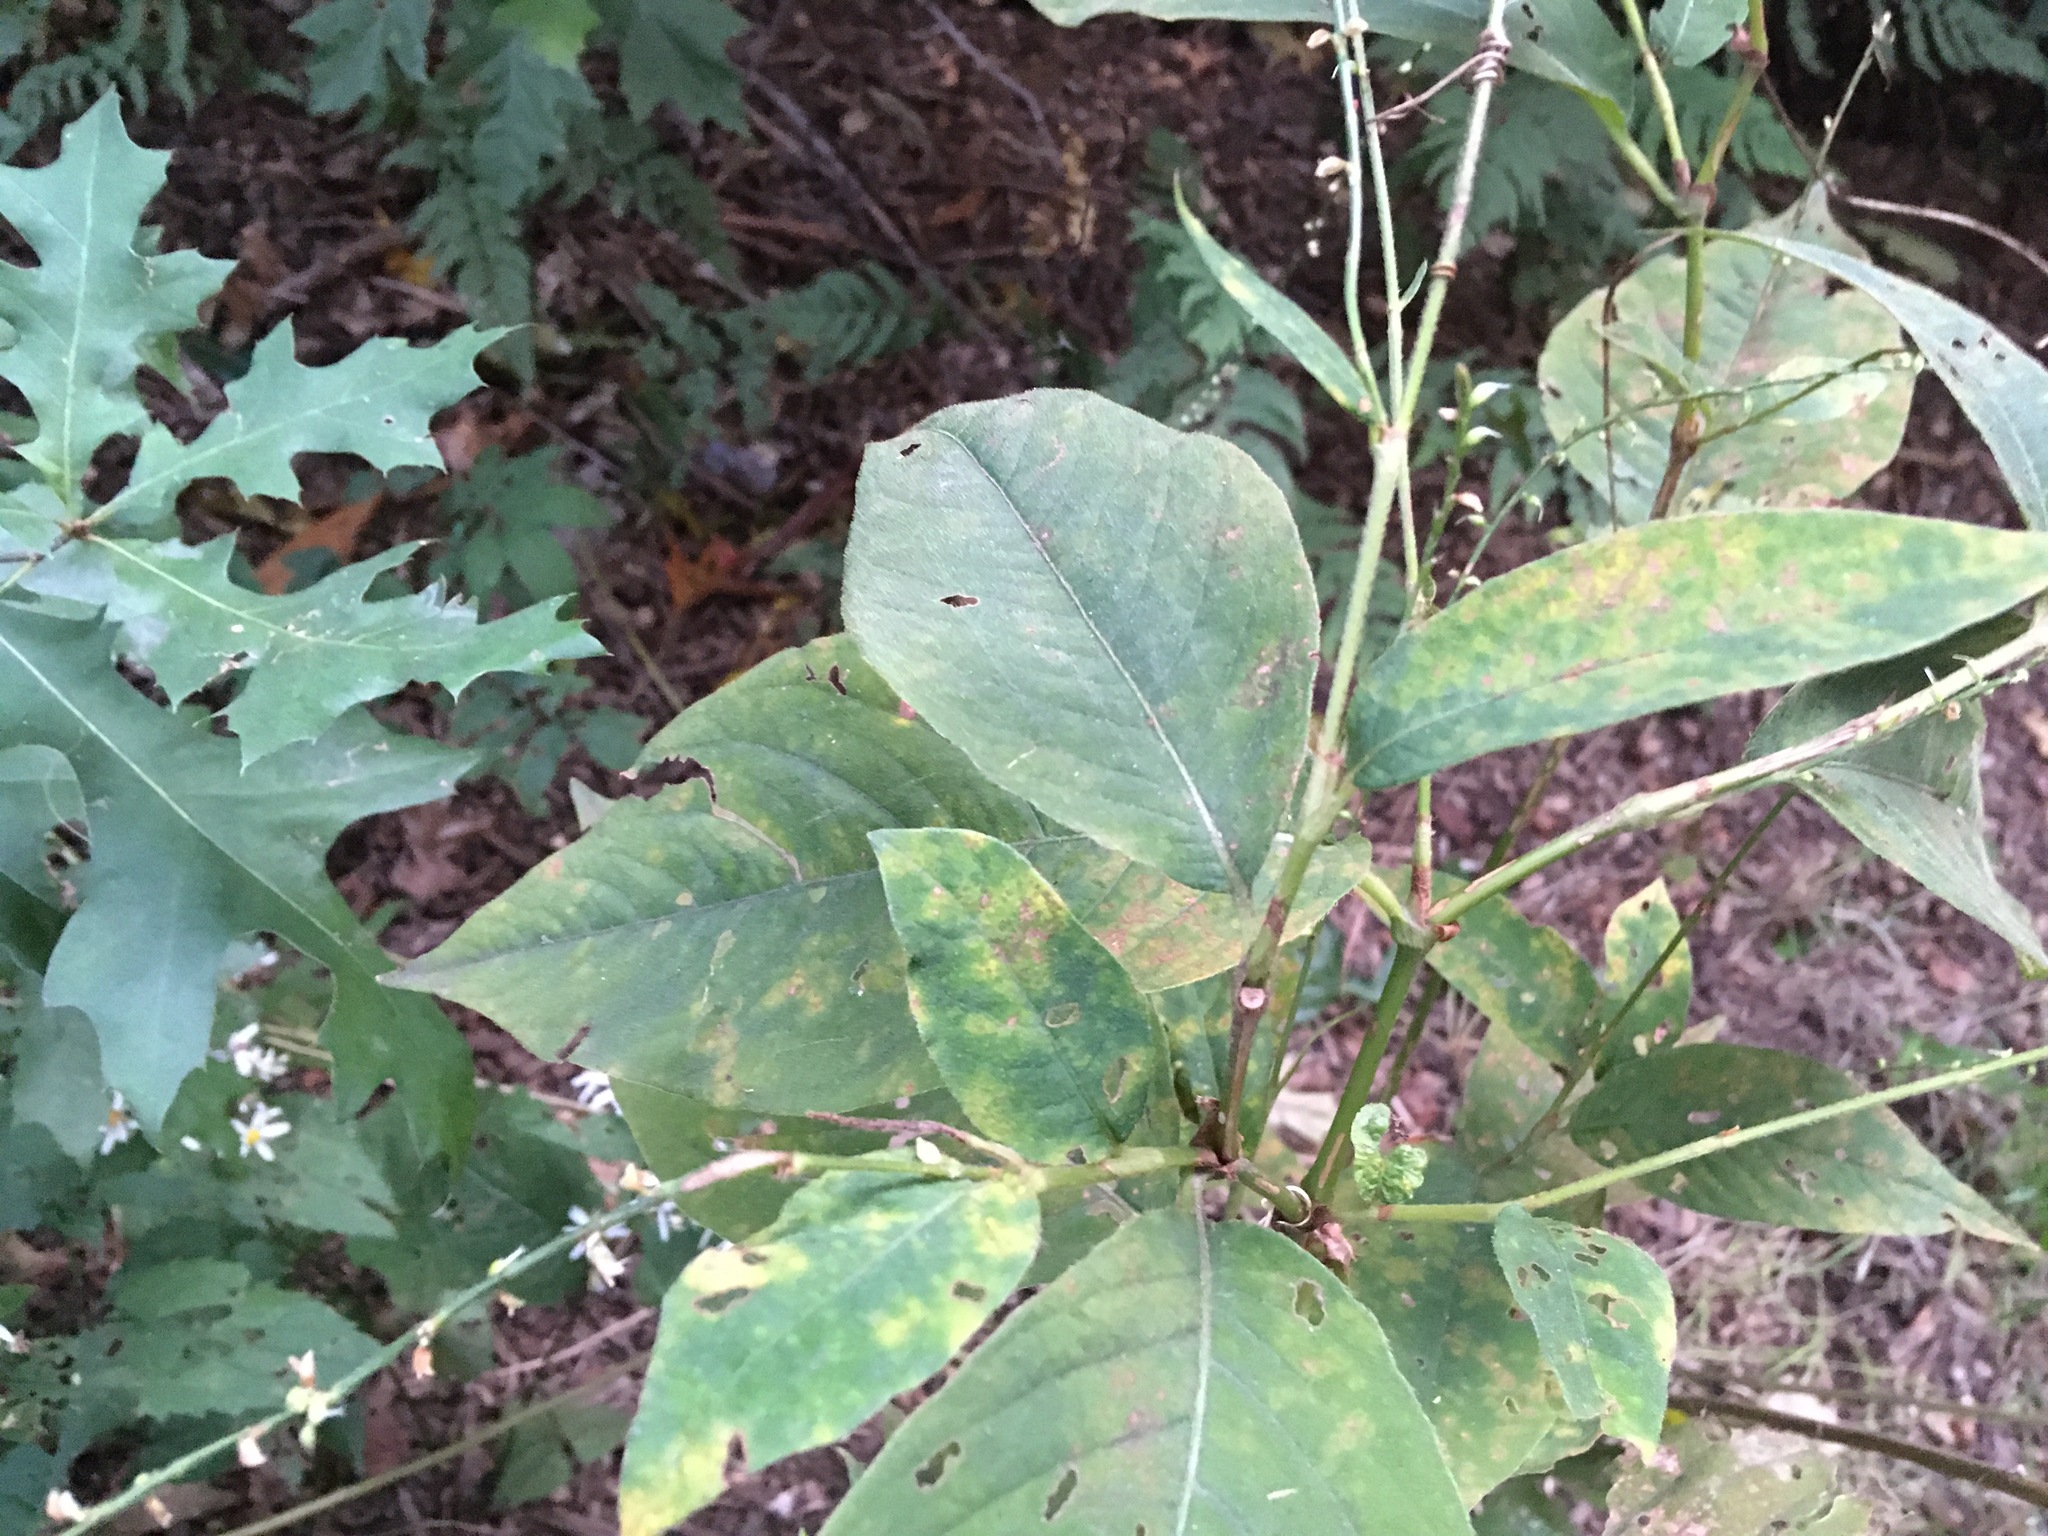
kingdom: Plantae
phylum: Tracheophyta
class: Magnoliopsida
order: Caryophyllales
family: Polygonaceae
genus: Persicaria
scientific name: Persicaria virginiana
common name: Jumpseed
